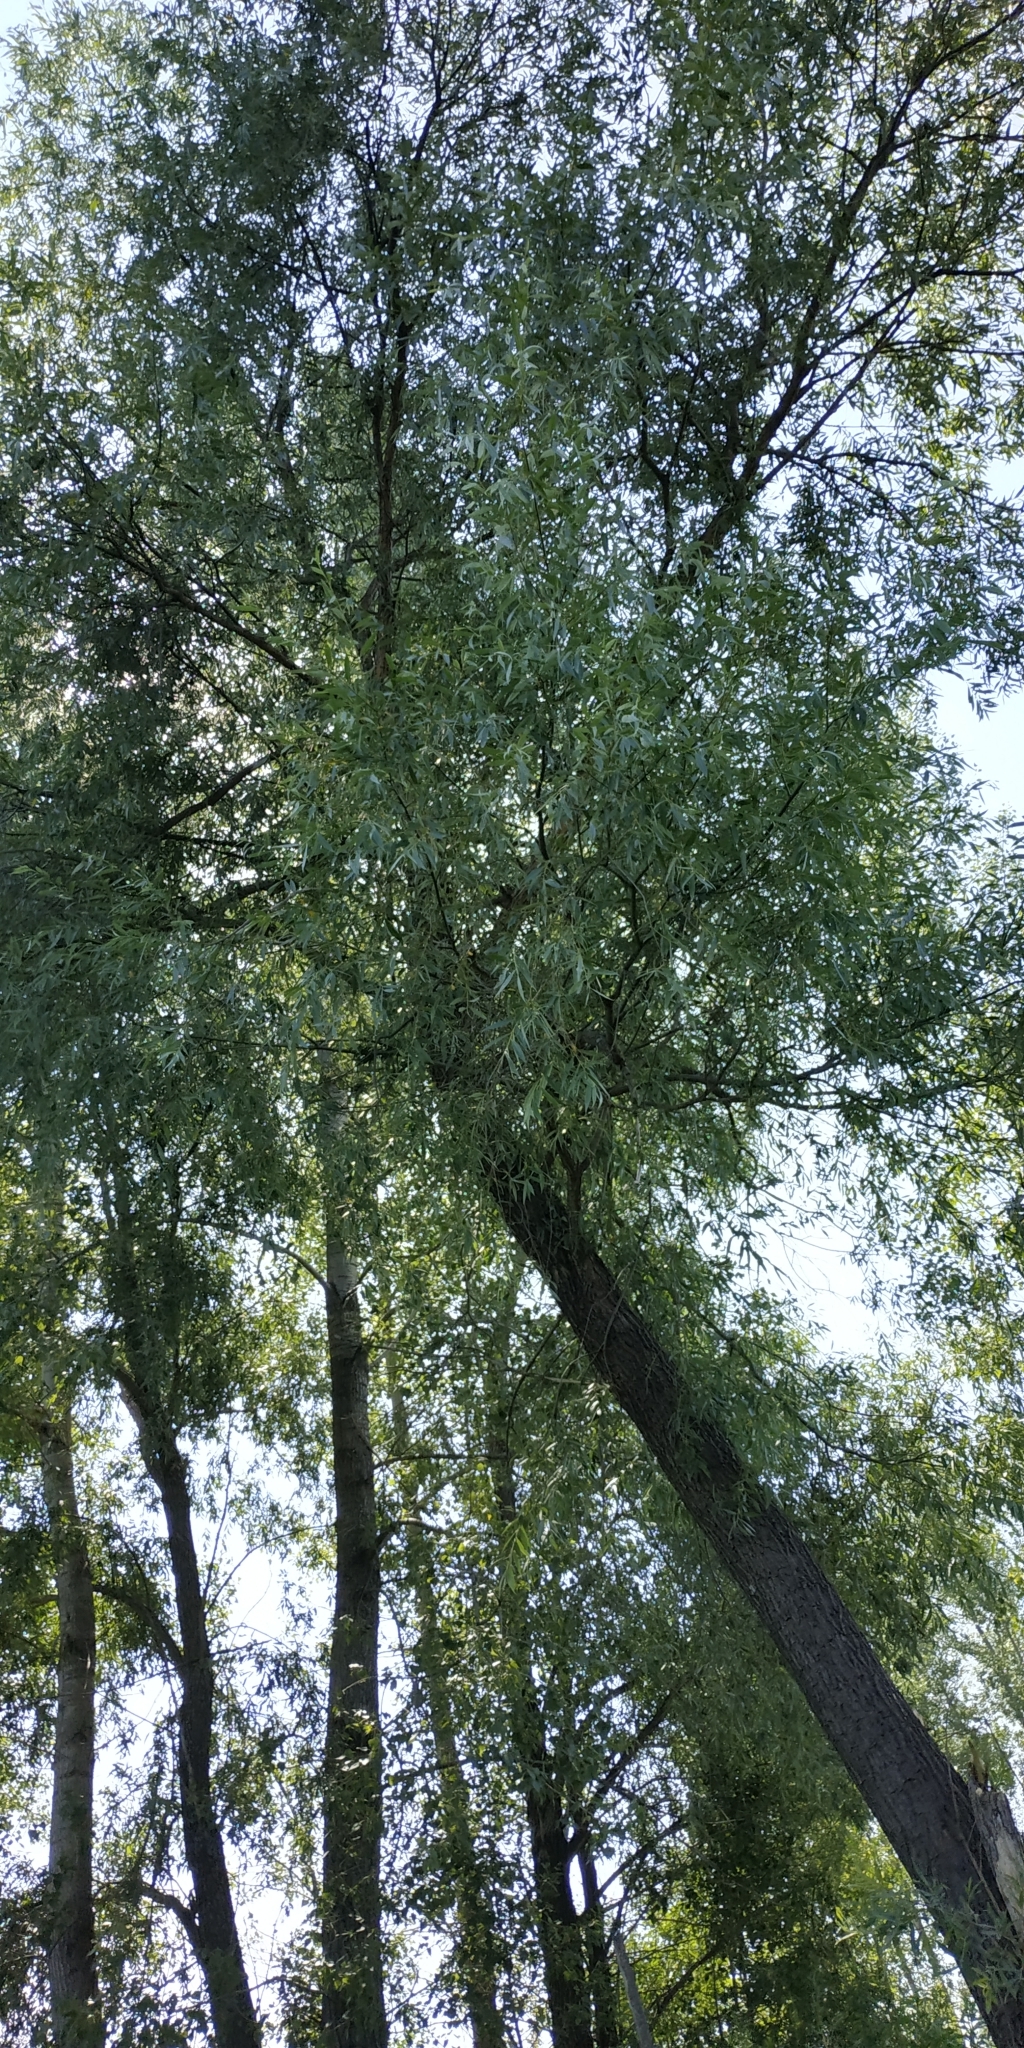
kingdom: Plantae
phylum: Tracheophyta
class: Magnoliopsida
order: Malpighiales
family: Salicaceae
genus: Salix
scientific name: Salix alba
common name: White willow
